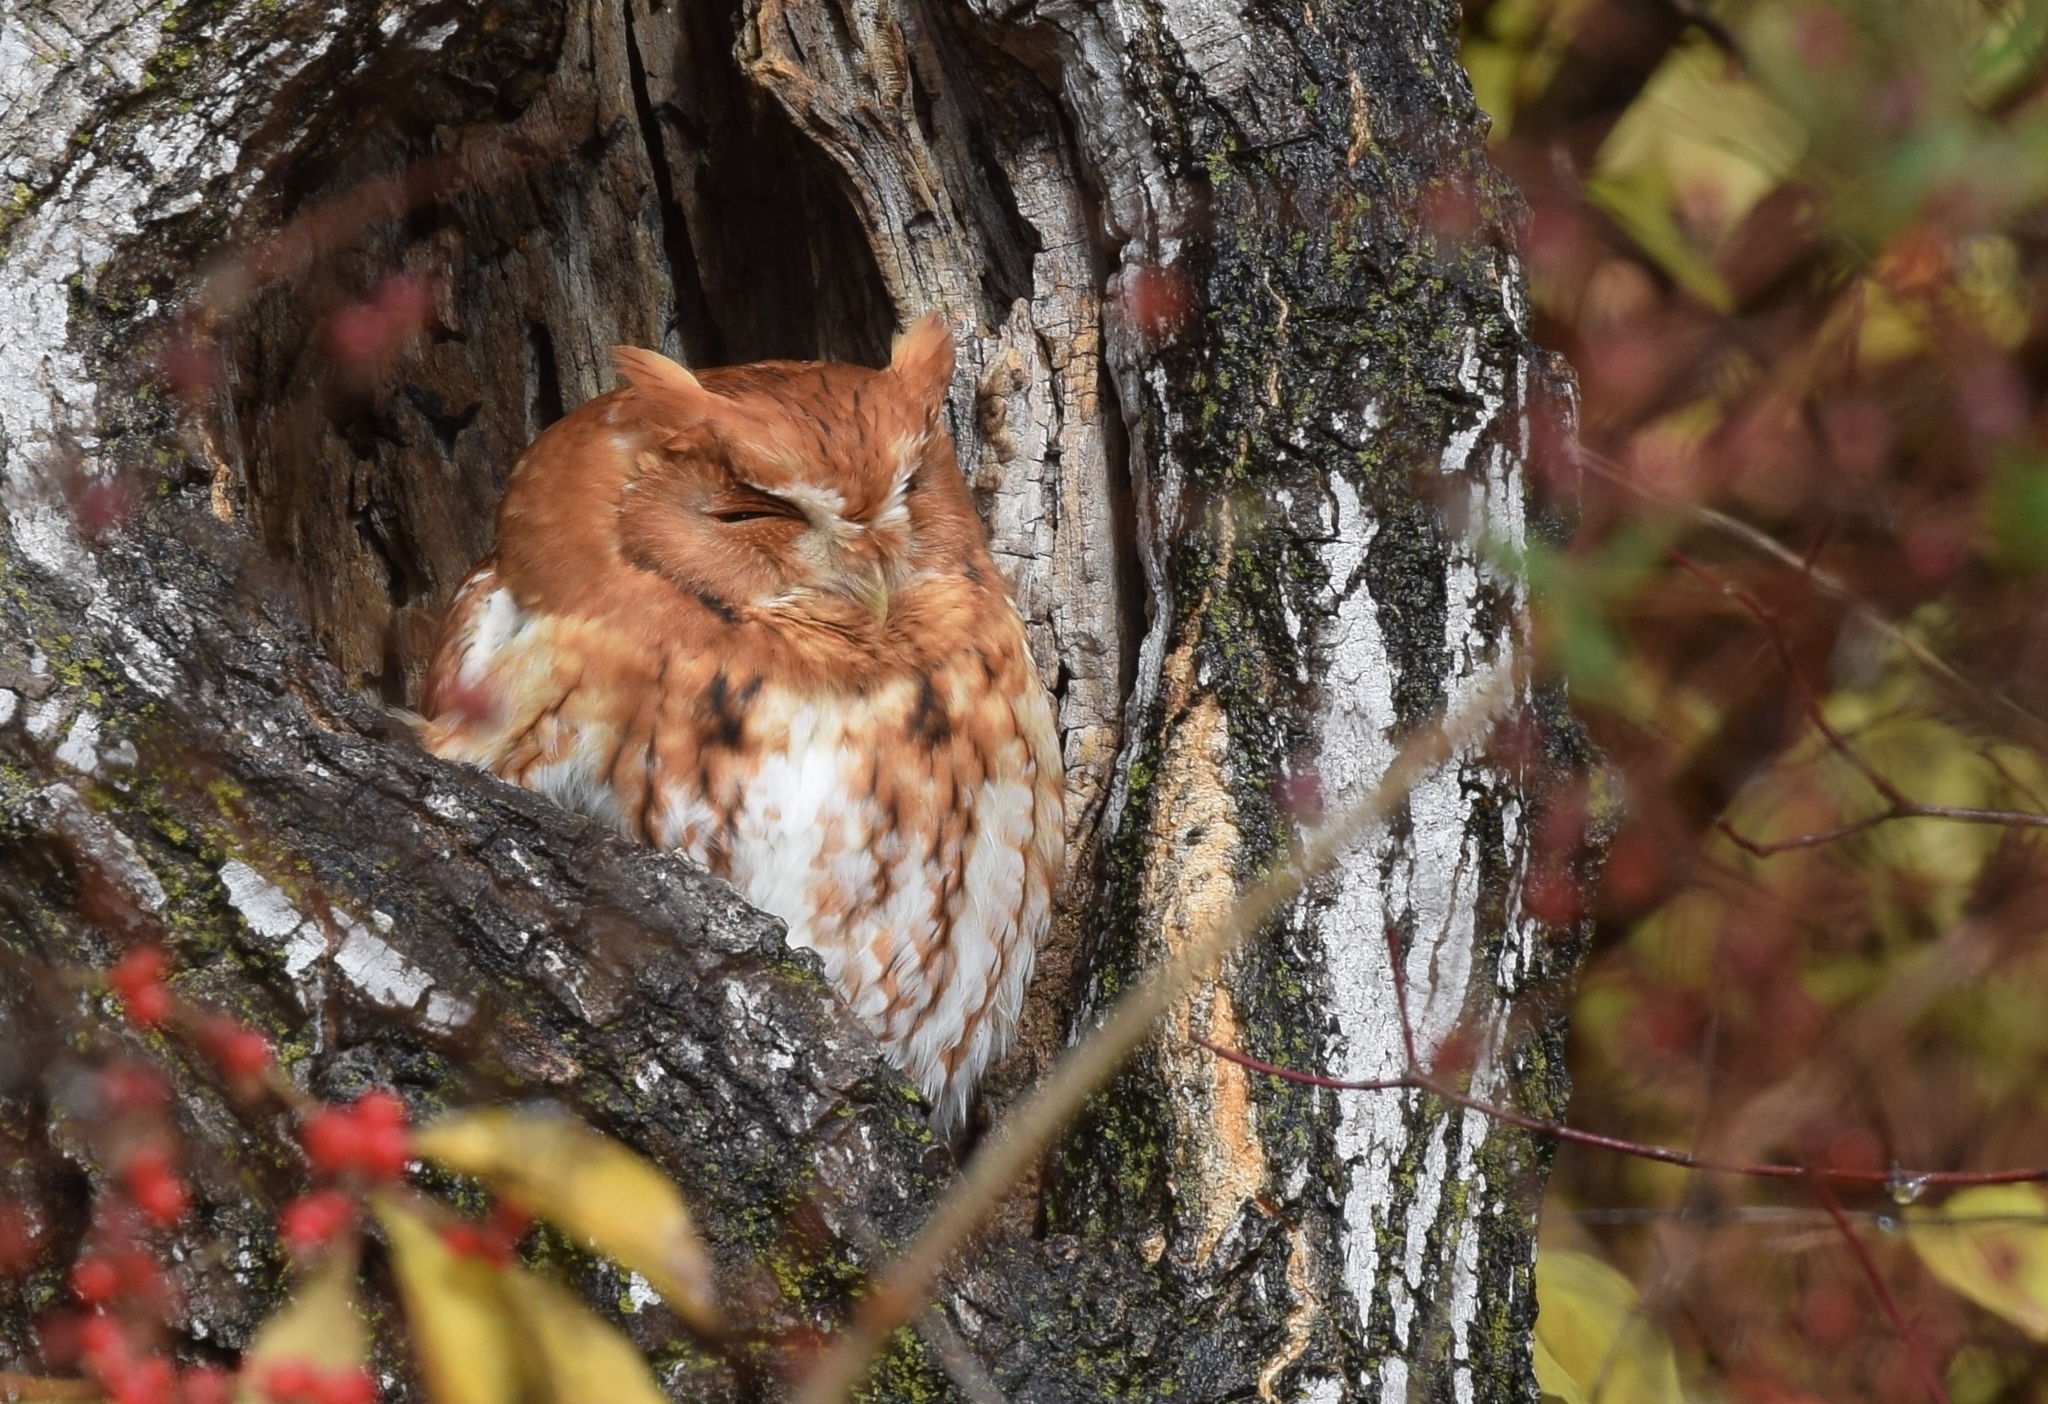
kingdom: Animalia
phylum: Chordata
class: Aves
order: Strigiformes
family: Strigidae
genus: Megascops
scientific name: Megascops asio
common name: Eastern screech-owl
